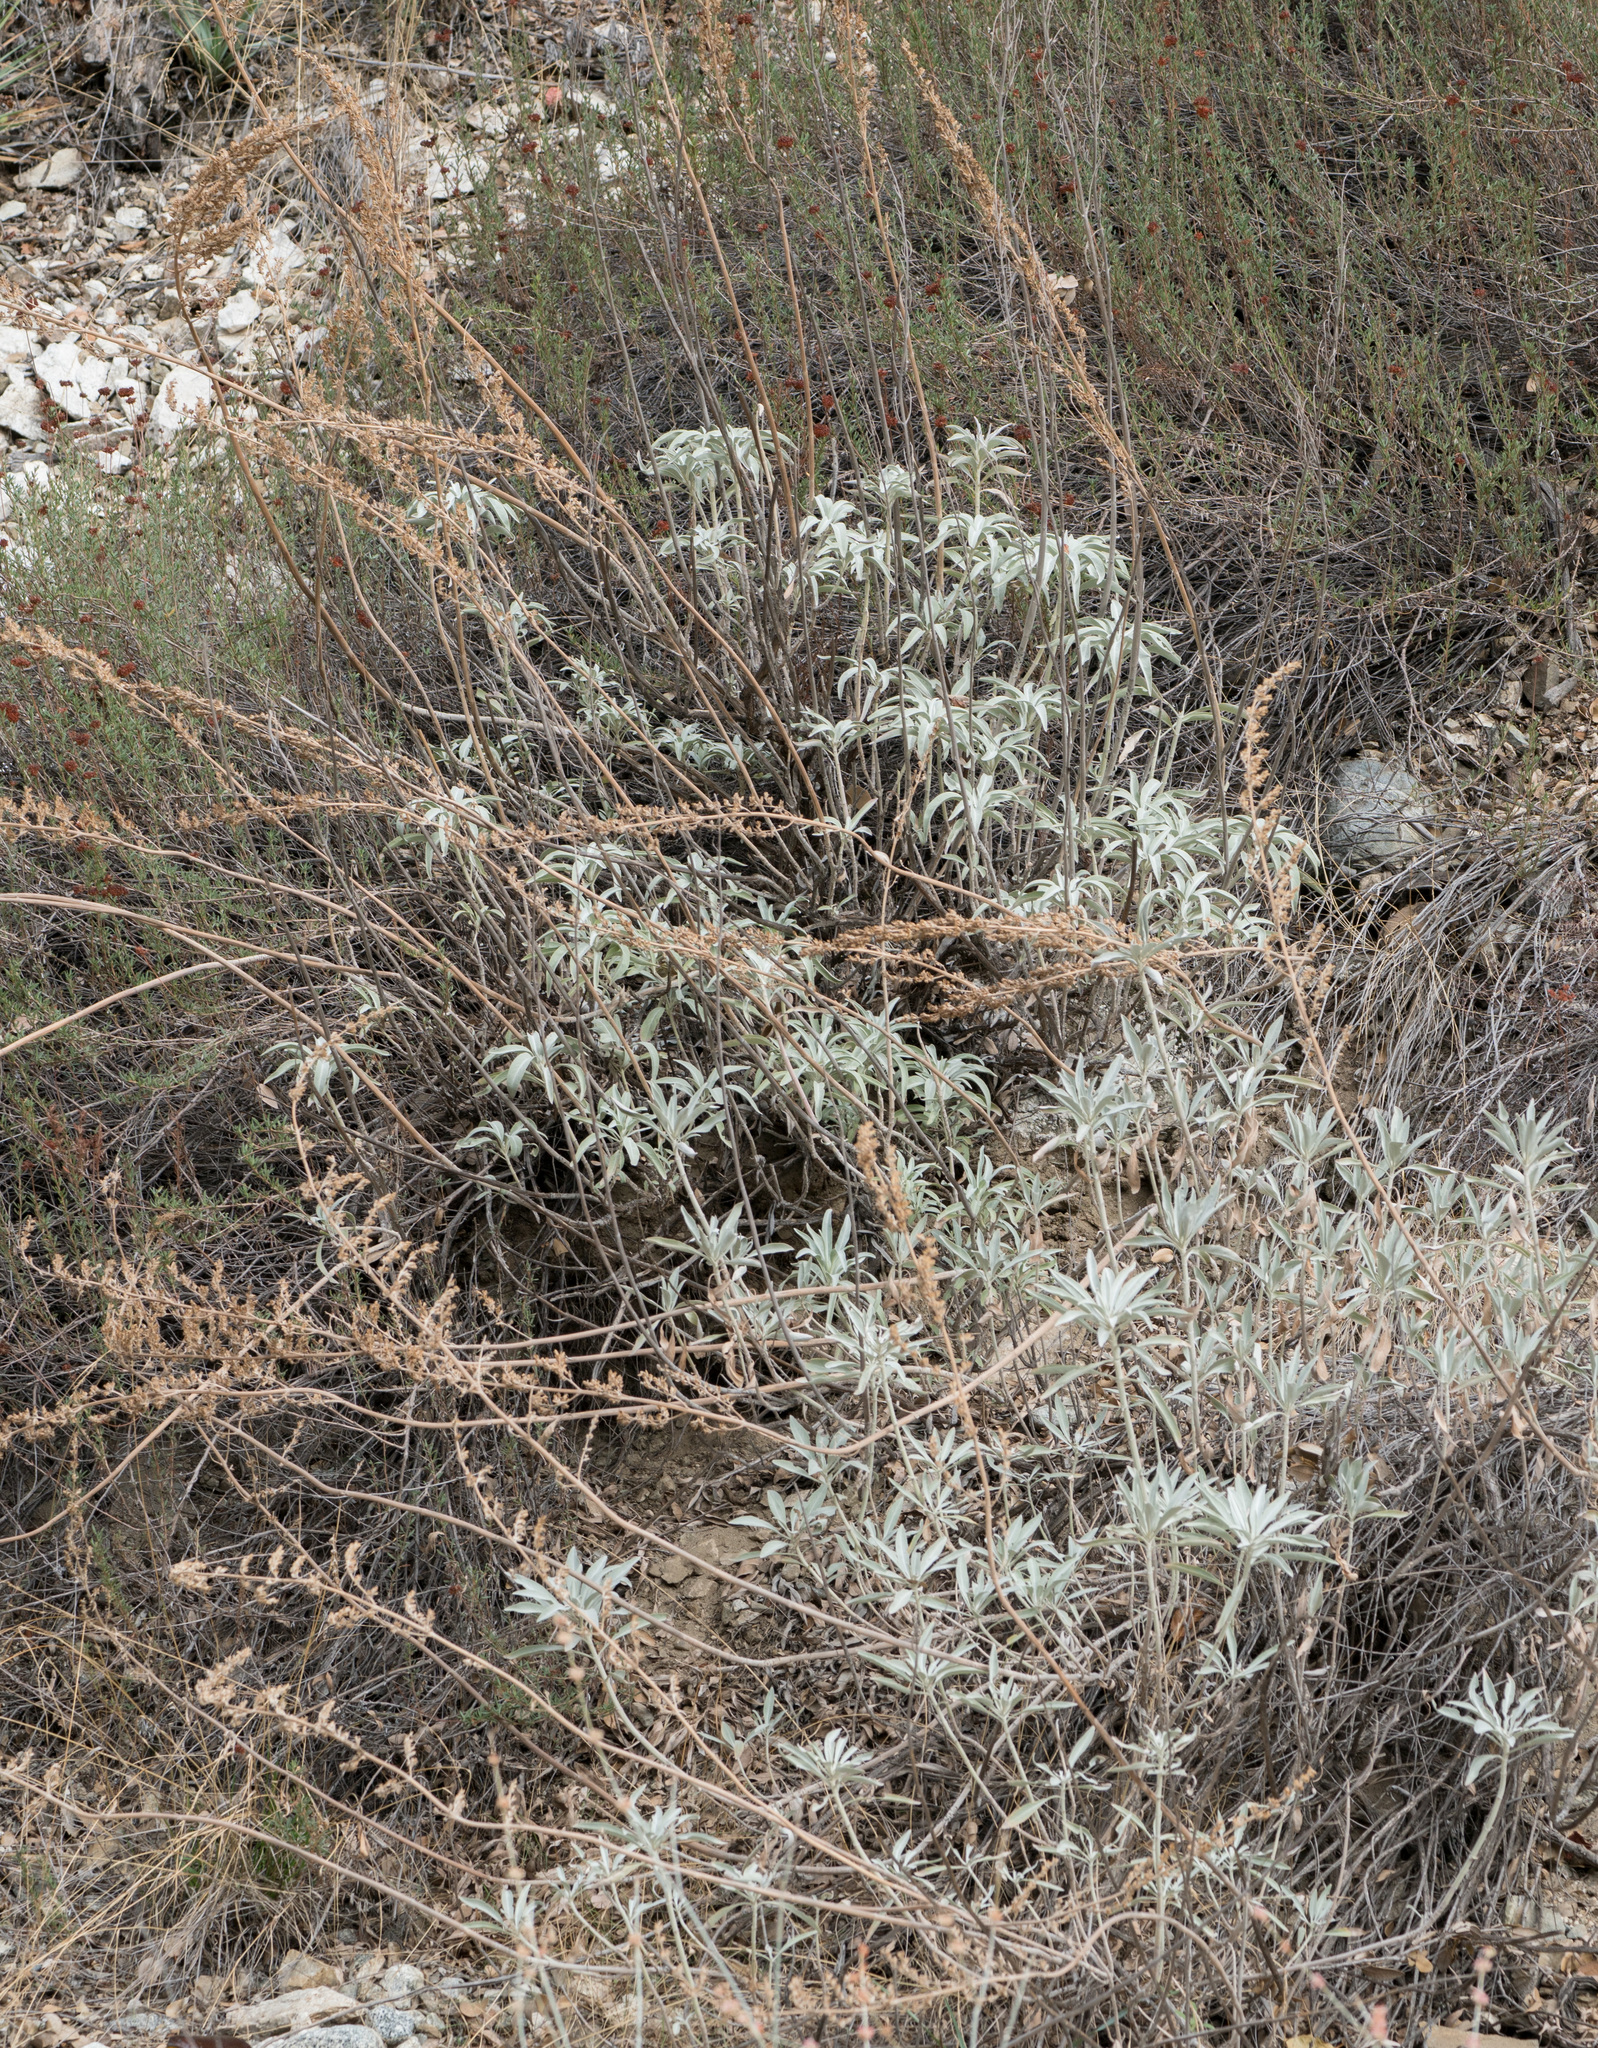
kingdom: Plantae
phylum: Tracheophyta
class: Magnoliopsida
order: Lamiales
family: Lamiaceae
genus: Salvia
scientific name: Salvia apiana
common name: White sage
